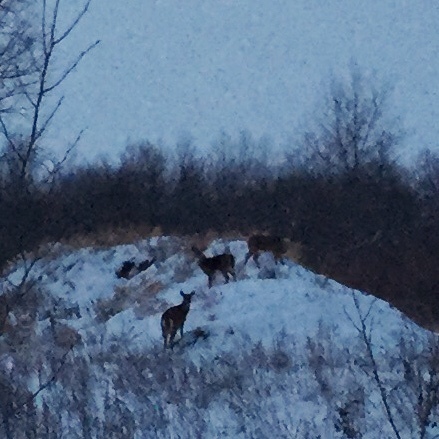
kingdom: Animalia
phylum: Chordata
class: Mammalia
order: Artiodactyla
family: Cervidae
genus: Odocoileus
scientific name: Odocoileus virginianus
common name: White-tailed deer
